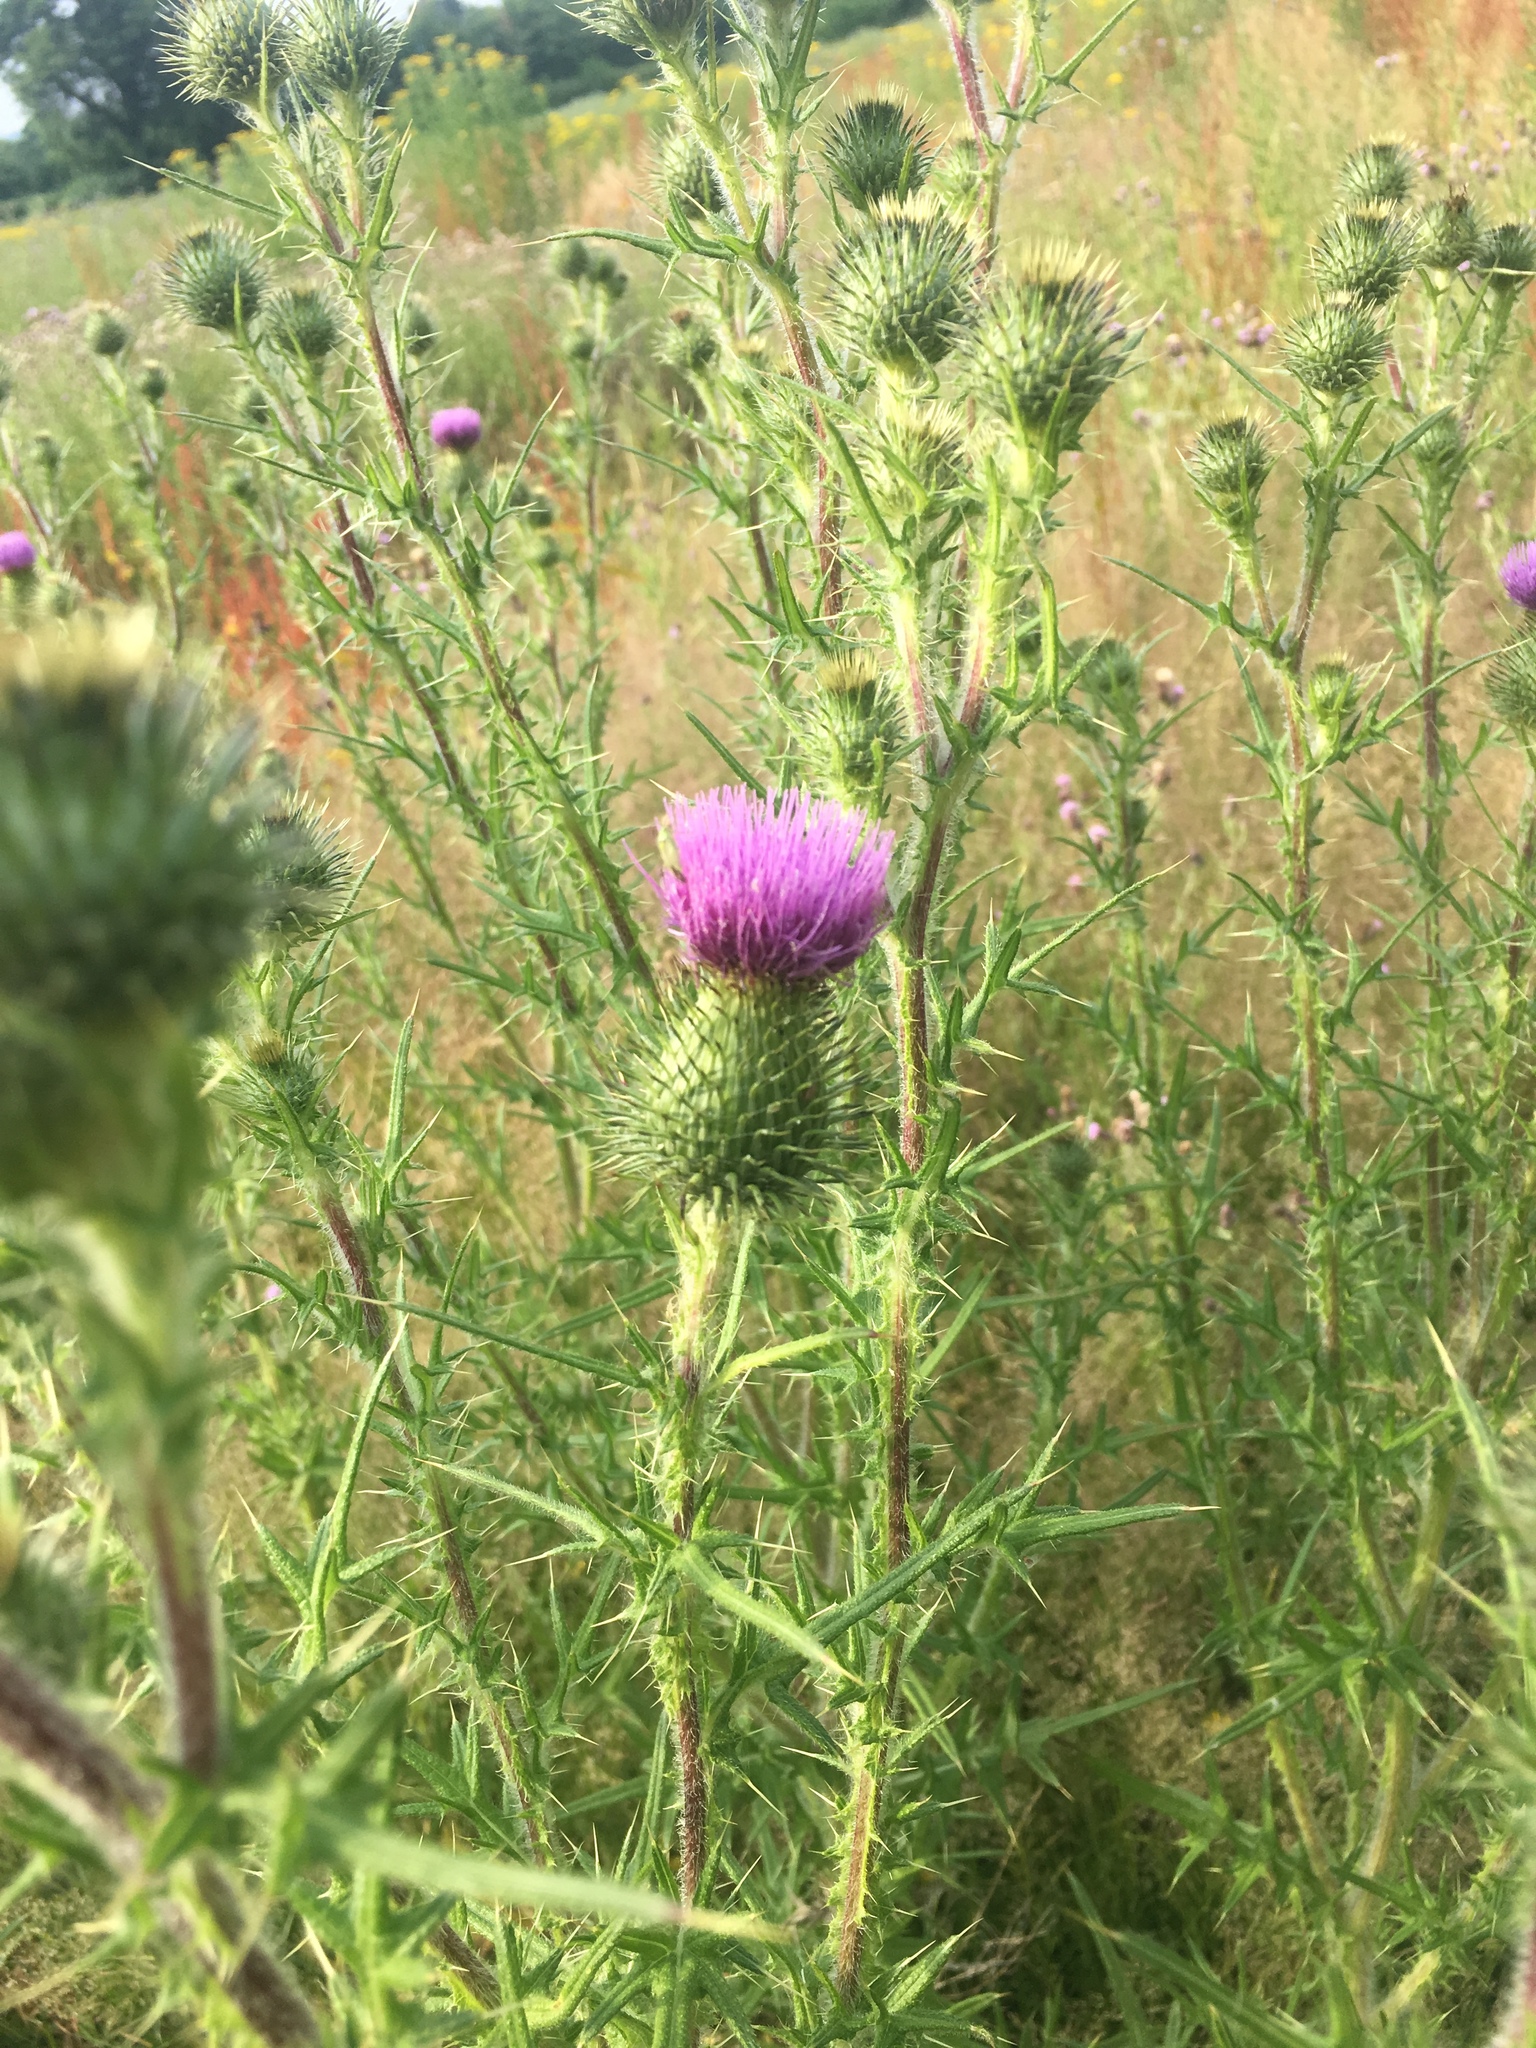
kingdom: Plantae
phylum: Tracheophyta
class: Magnoliopsida
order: Asterales
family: Asteraceae
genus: Cirsium
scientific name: Cirsium vulgare
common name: Bull thistle
